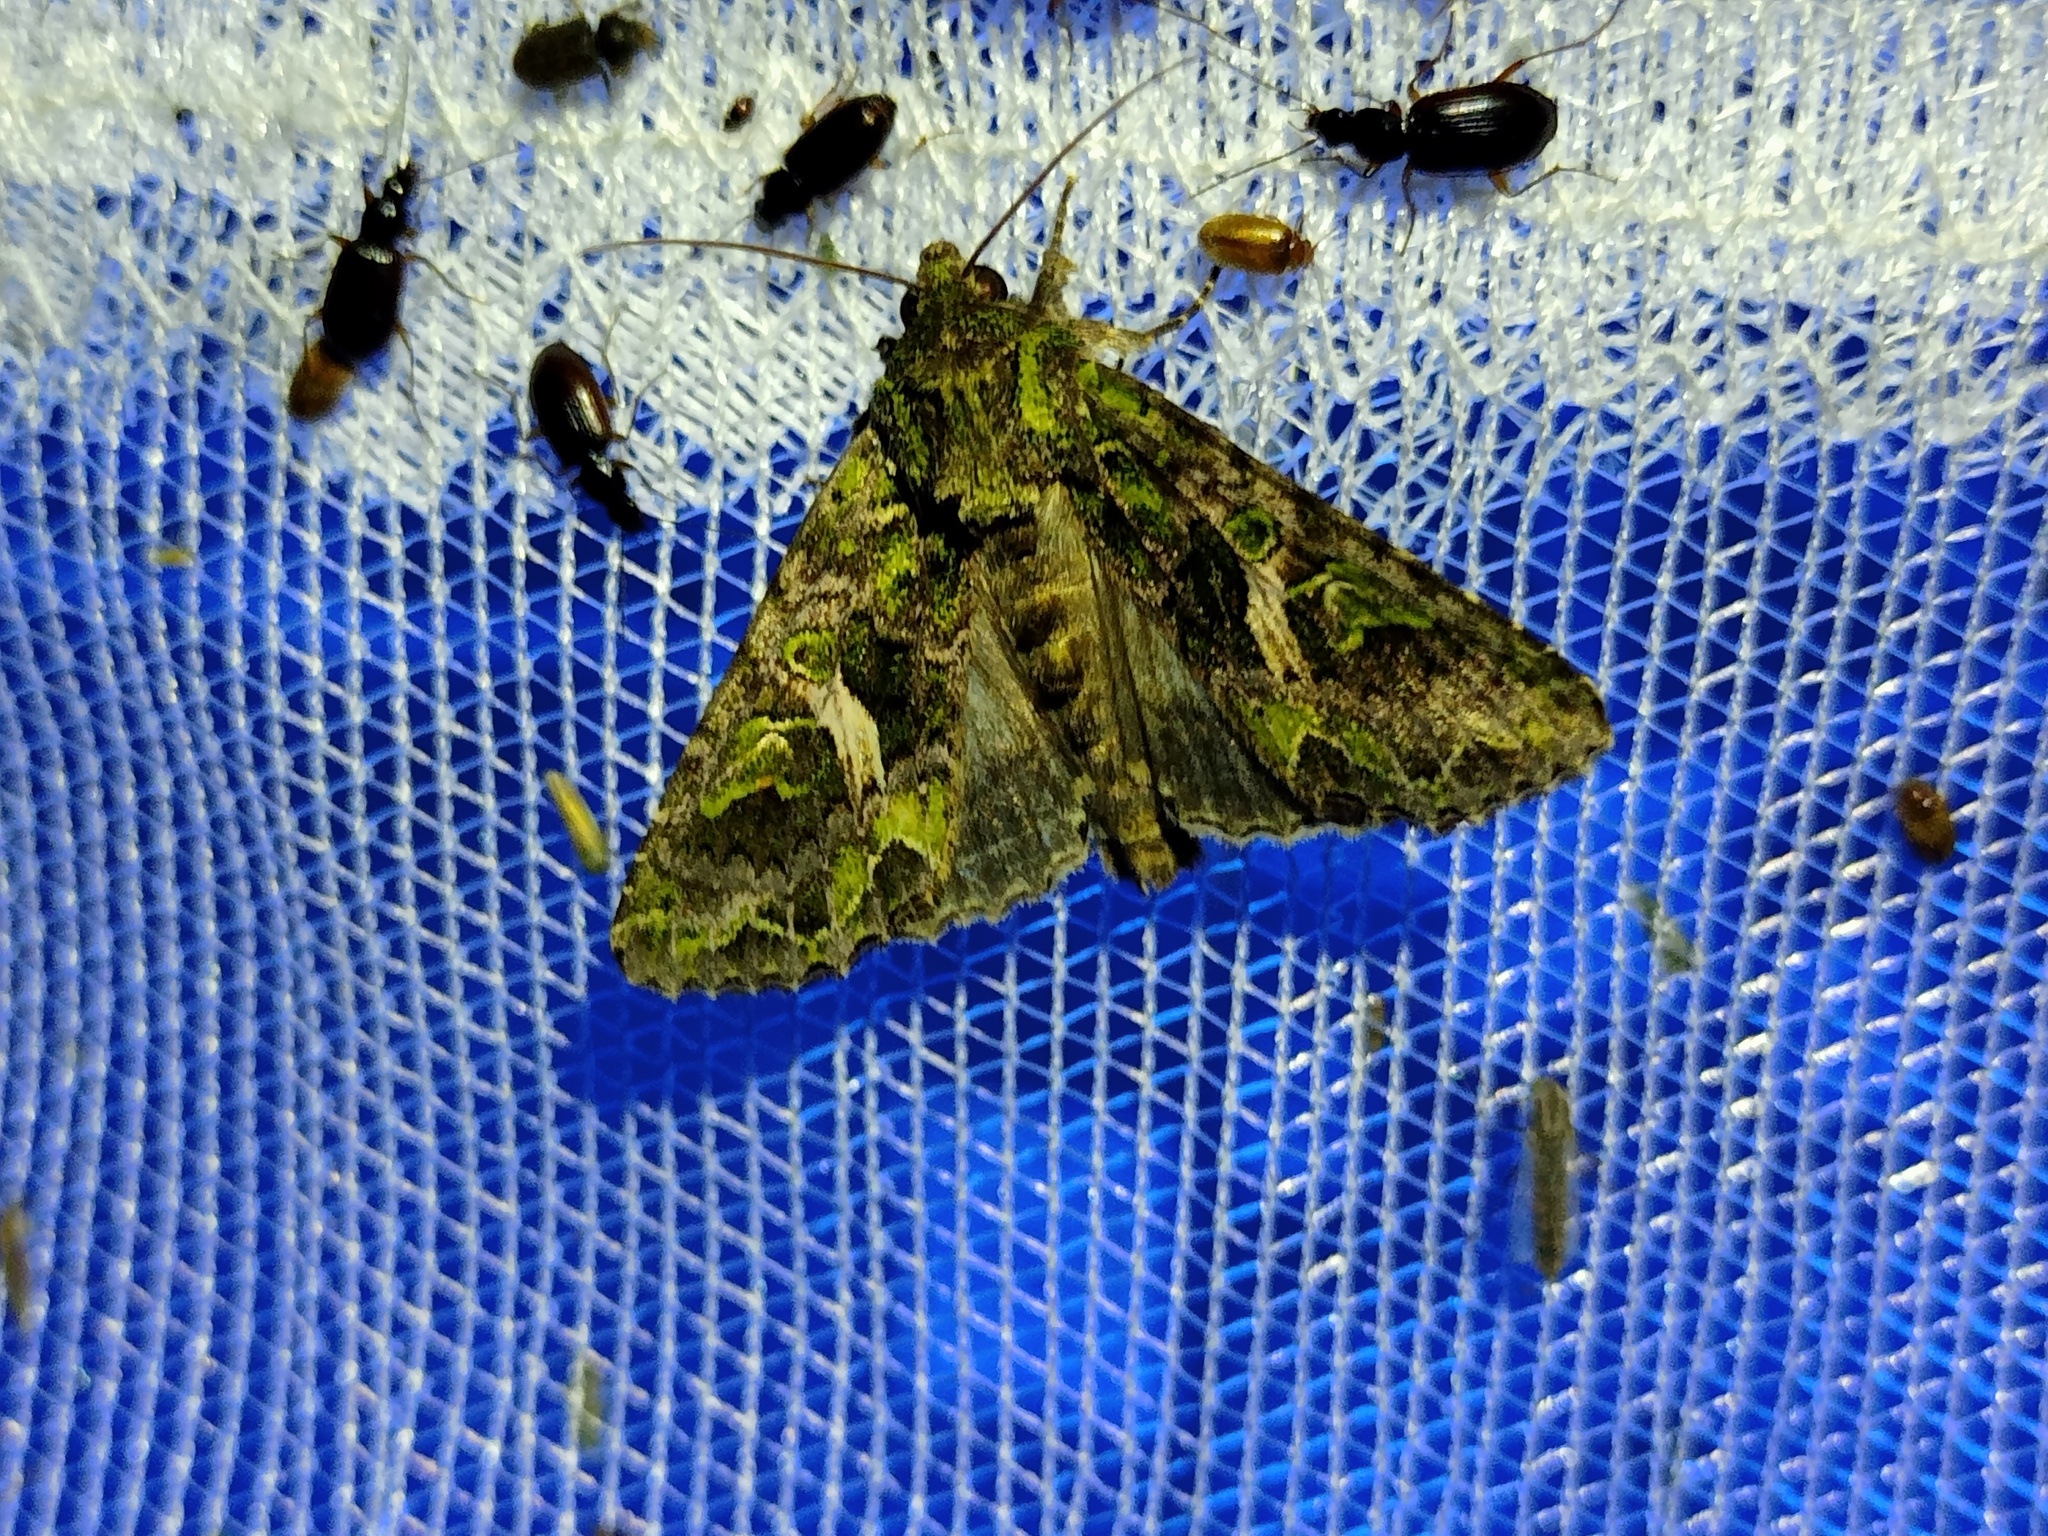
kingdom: Animalia
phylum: Arthropoda
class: Insecta
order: Lepidoptera
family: Noctuidae
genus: Trachea
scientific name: Trachea atriplicis
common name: Orache moth
